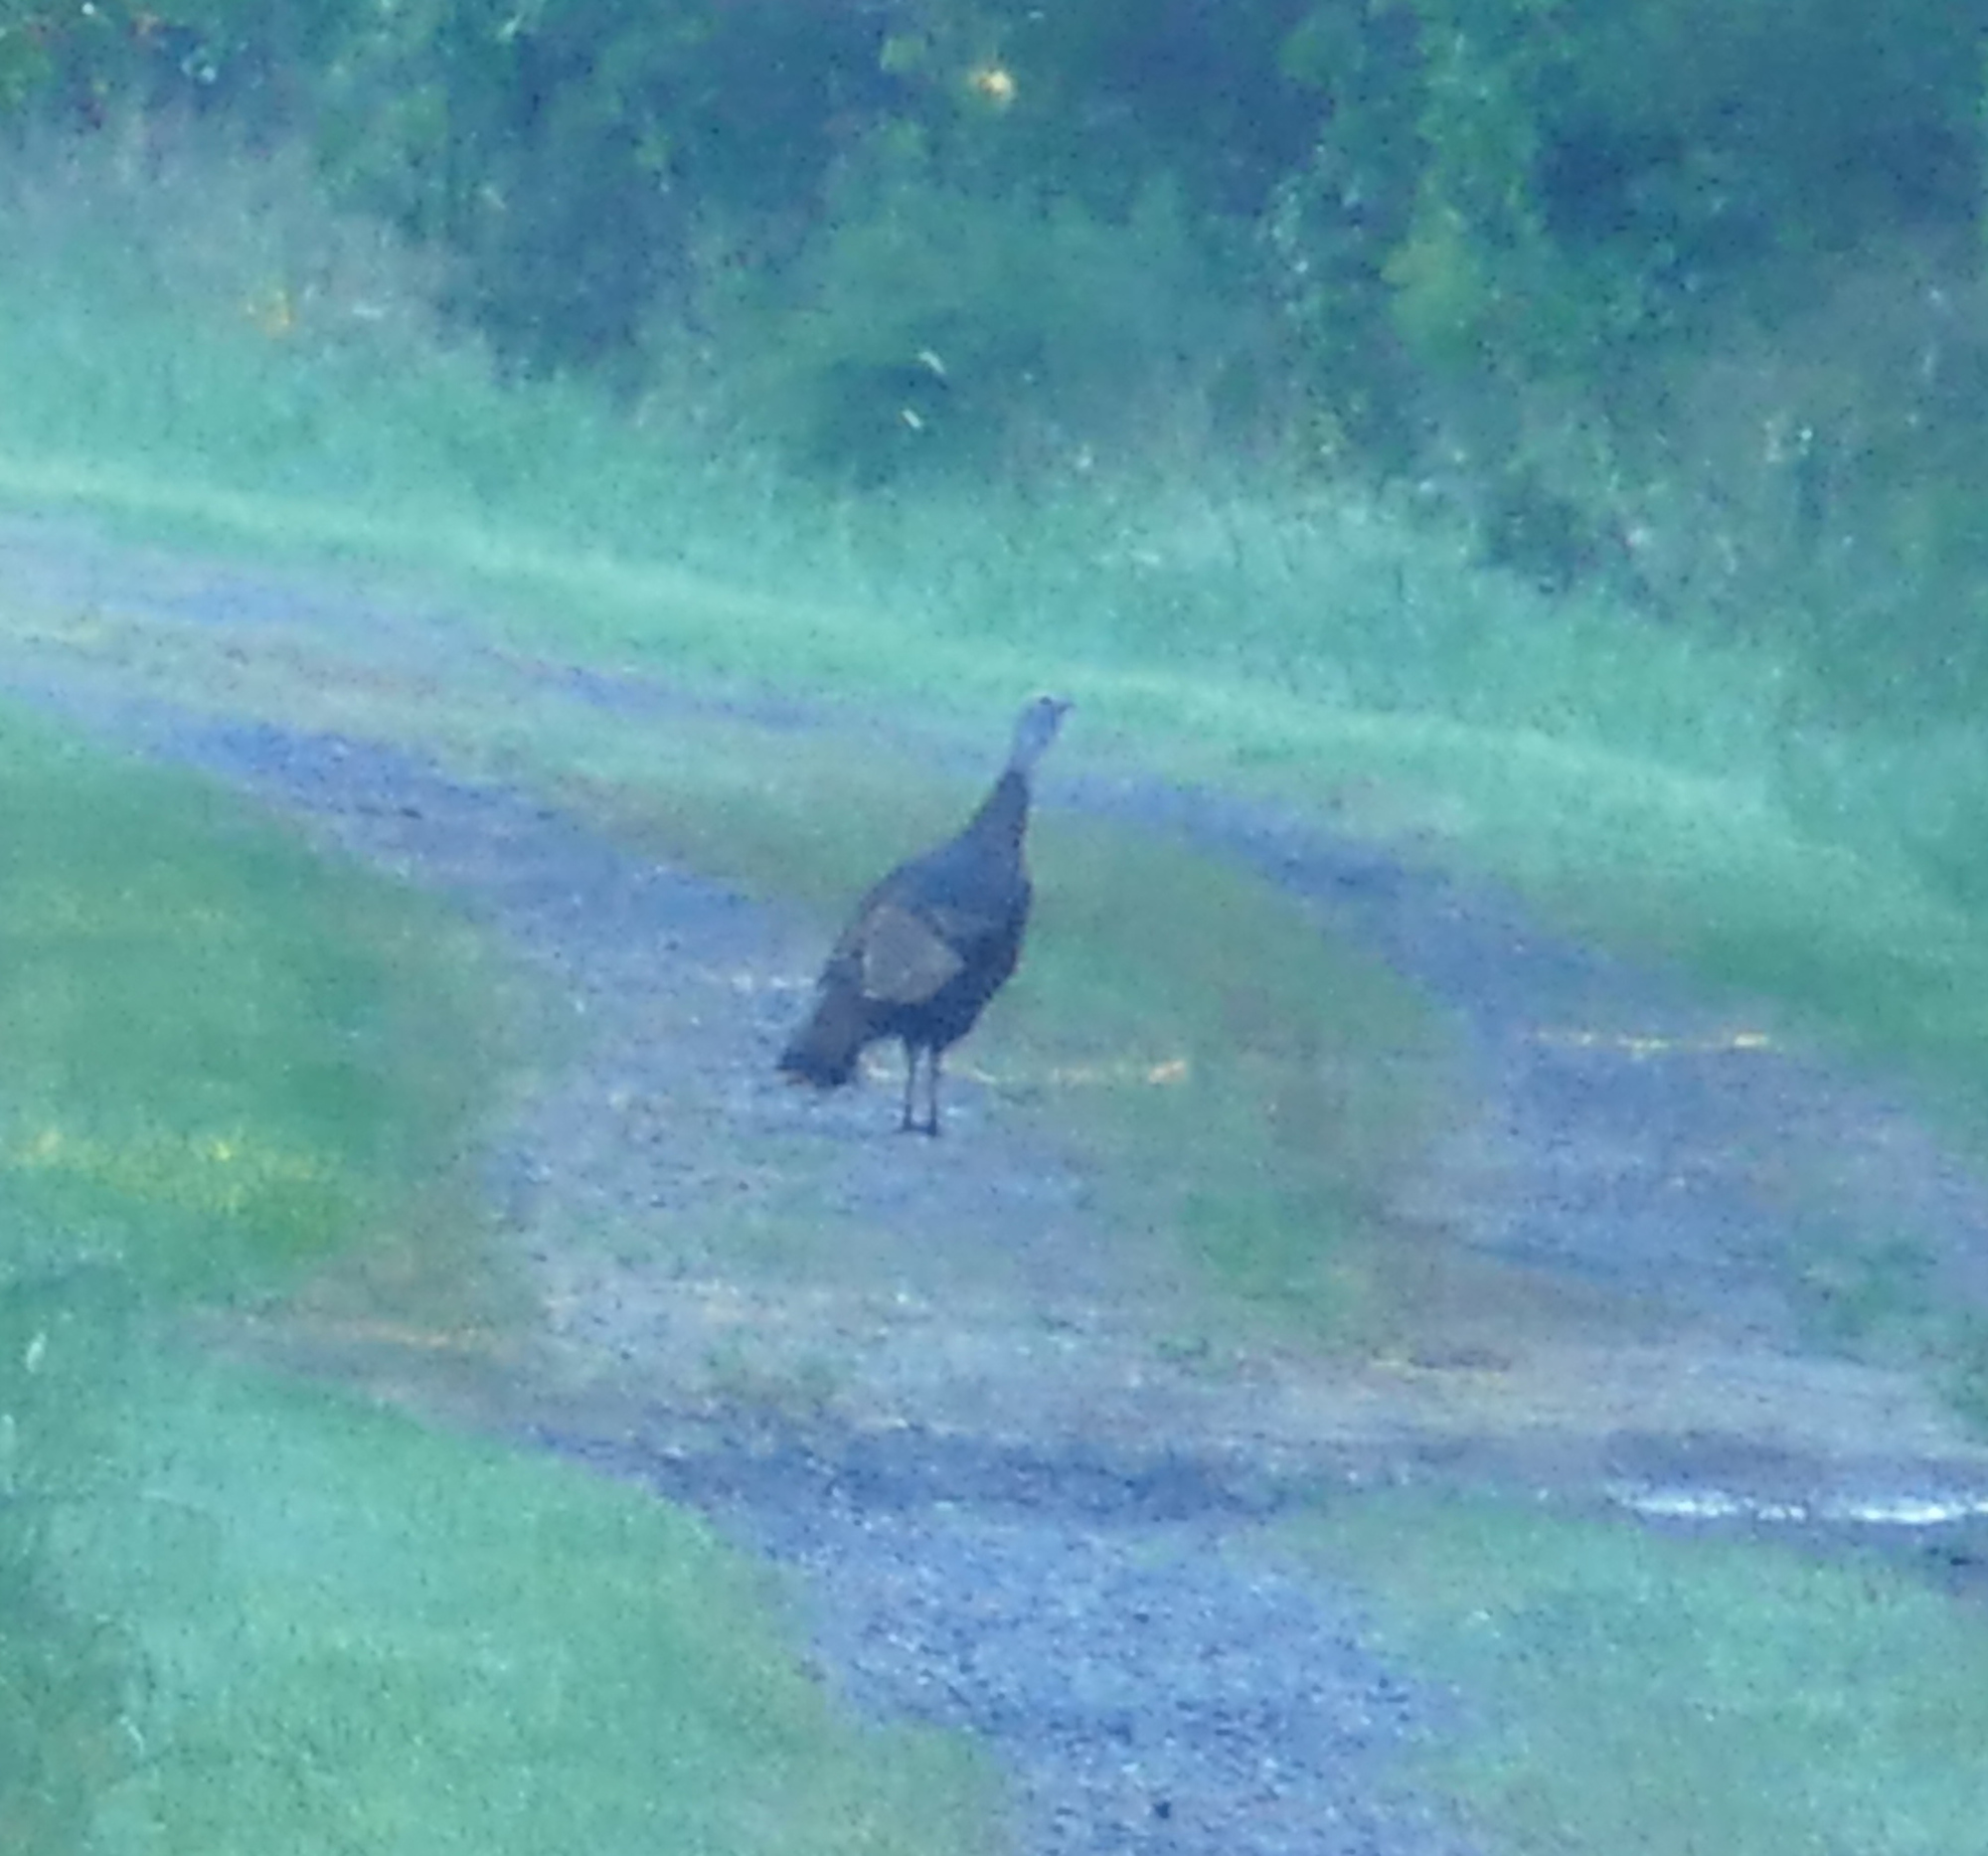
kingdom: Animalia
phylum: Chordata
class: Aves
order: Galliformes
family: Phasianidae
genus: Meleagris
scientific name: Meleagris gallopavo
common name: Wild turkey
